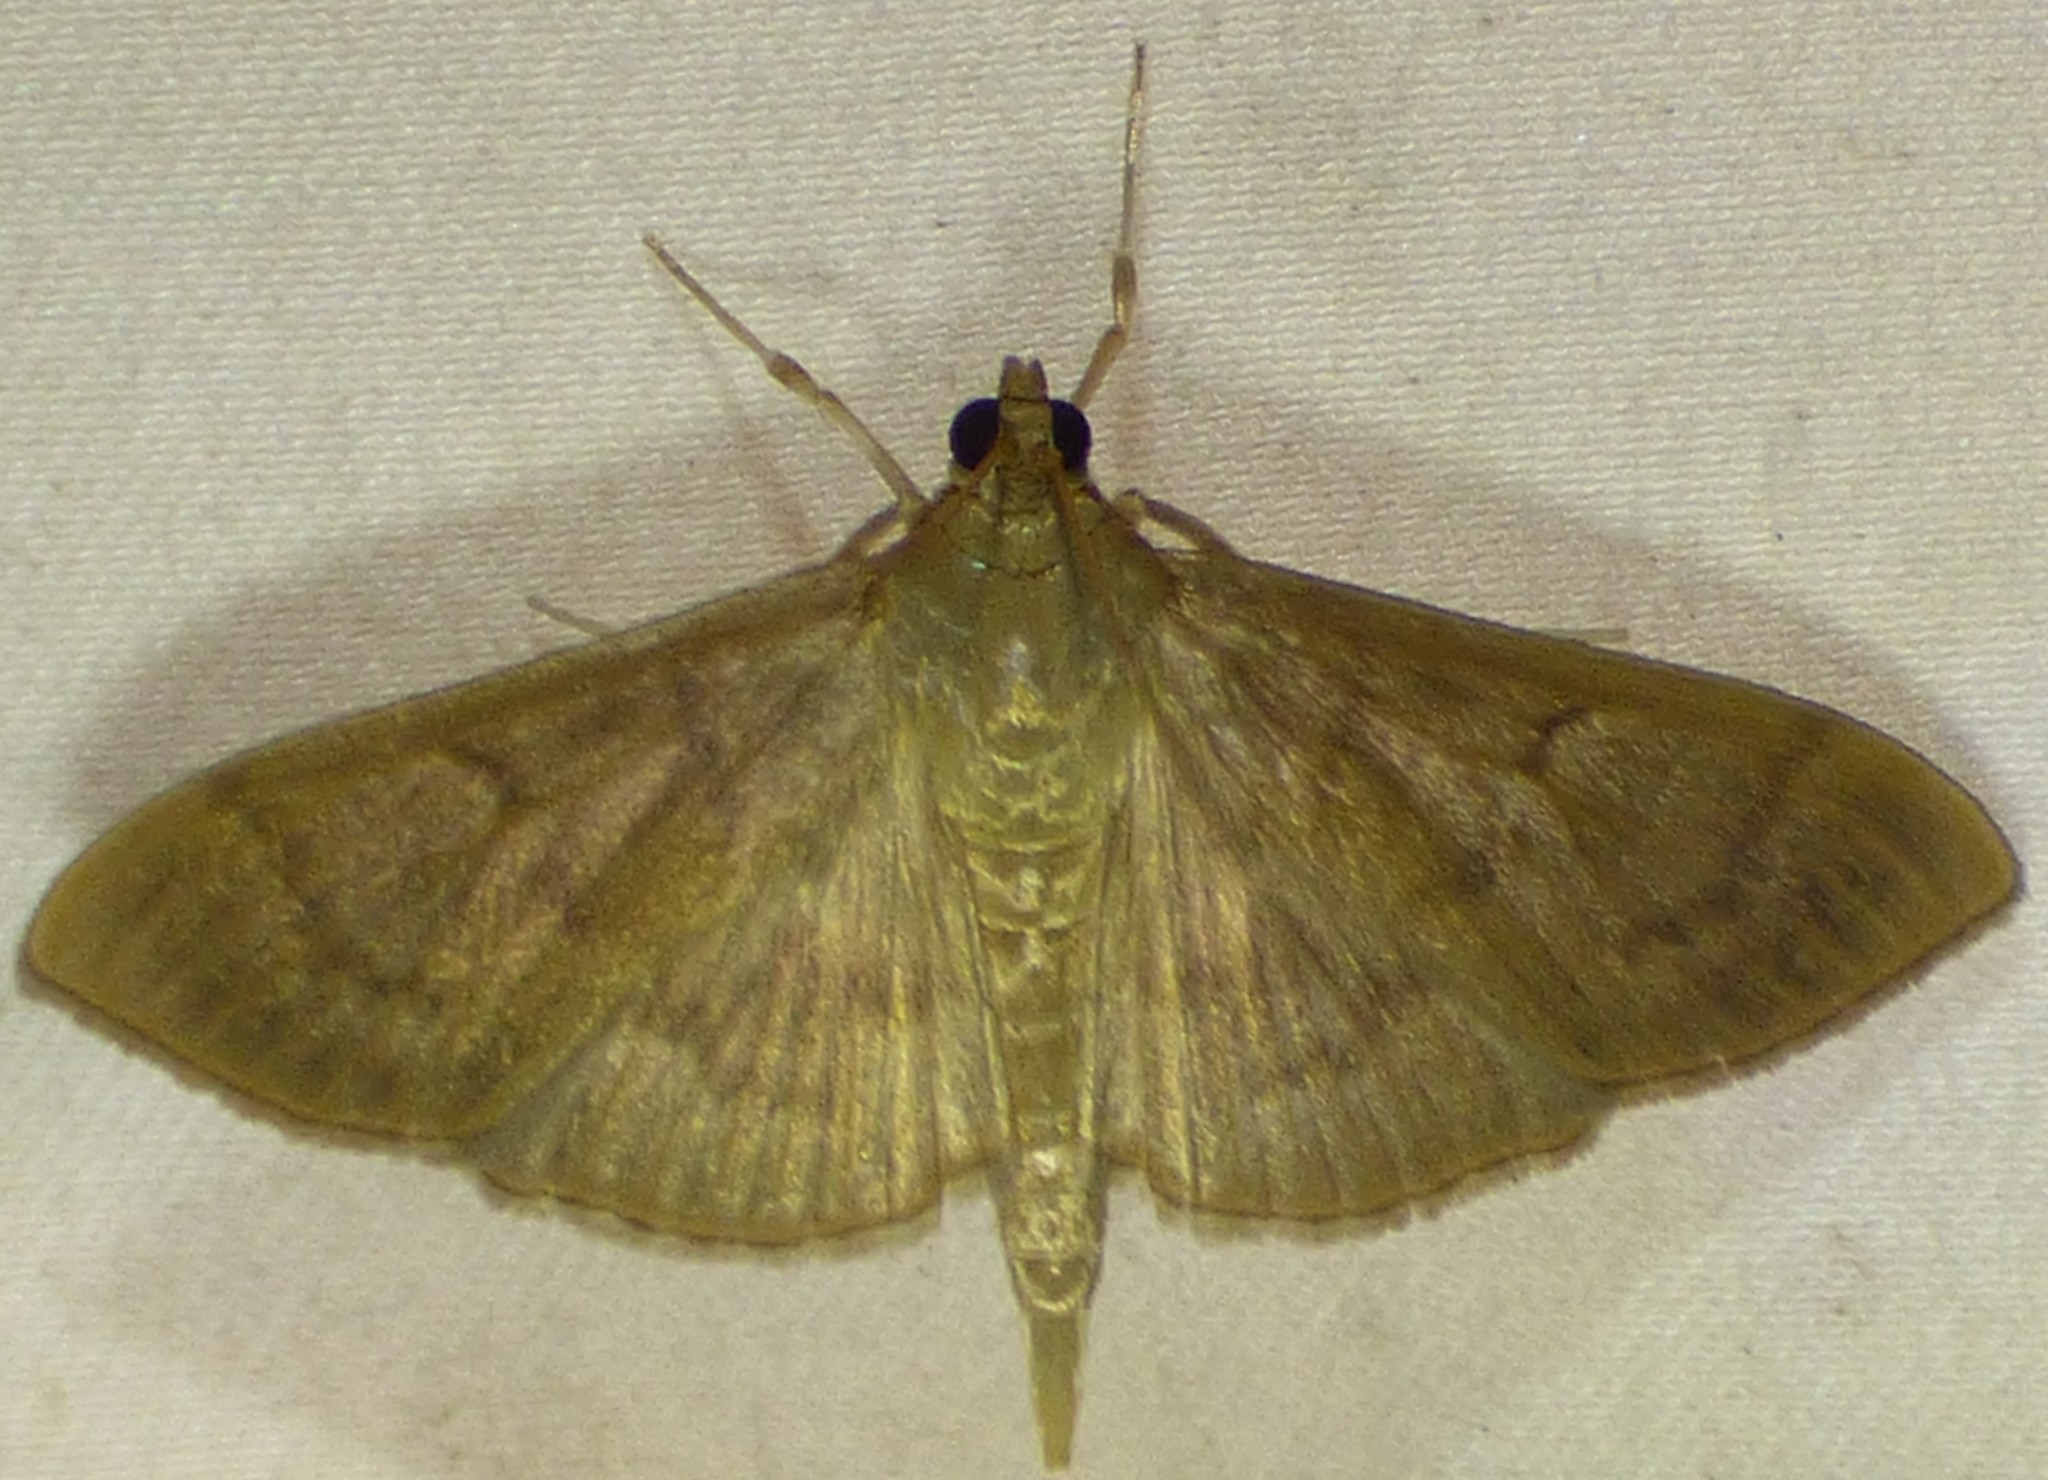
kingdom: Animalia
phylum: Arthropoda
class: Insecta
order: Lepidoptera
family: Crambidae
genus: Pleuroptya
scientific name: Pleuroptya silicalis
